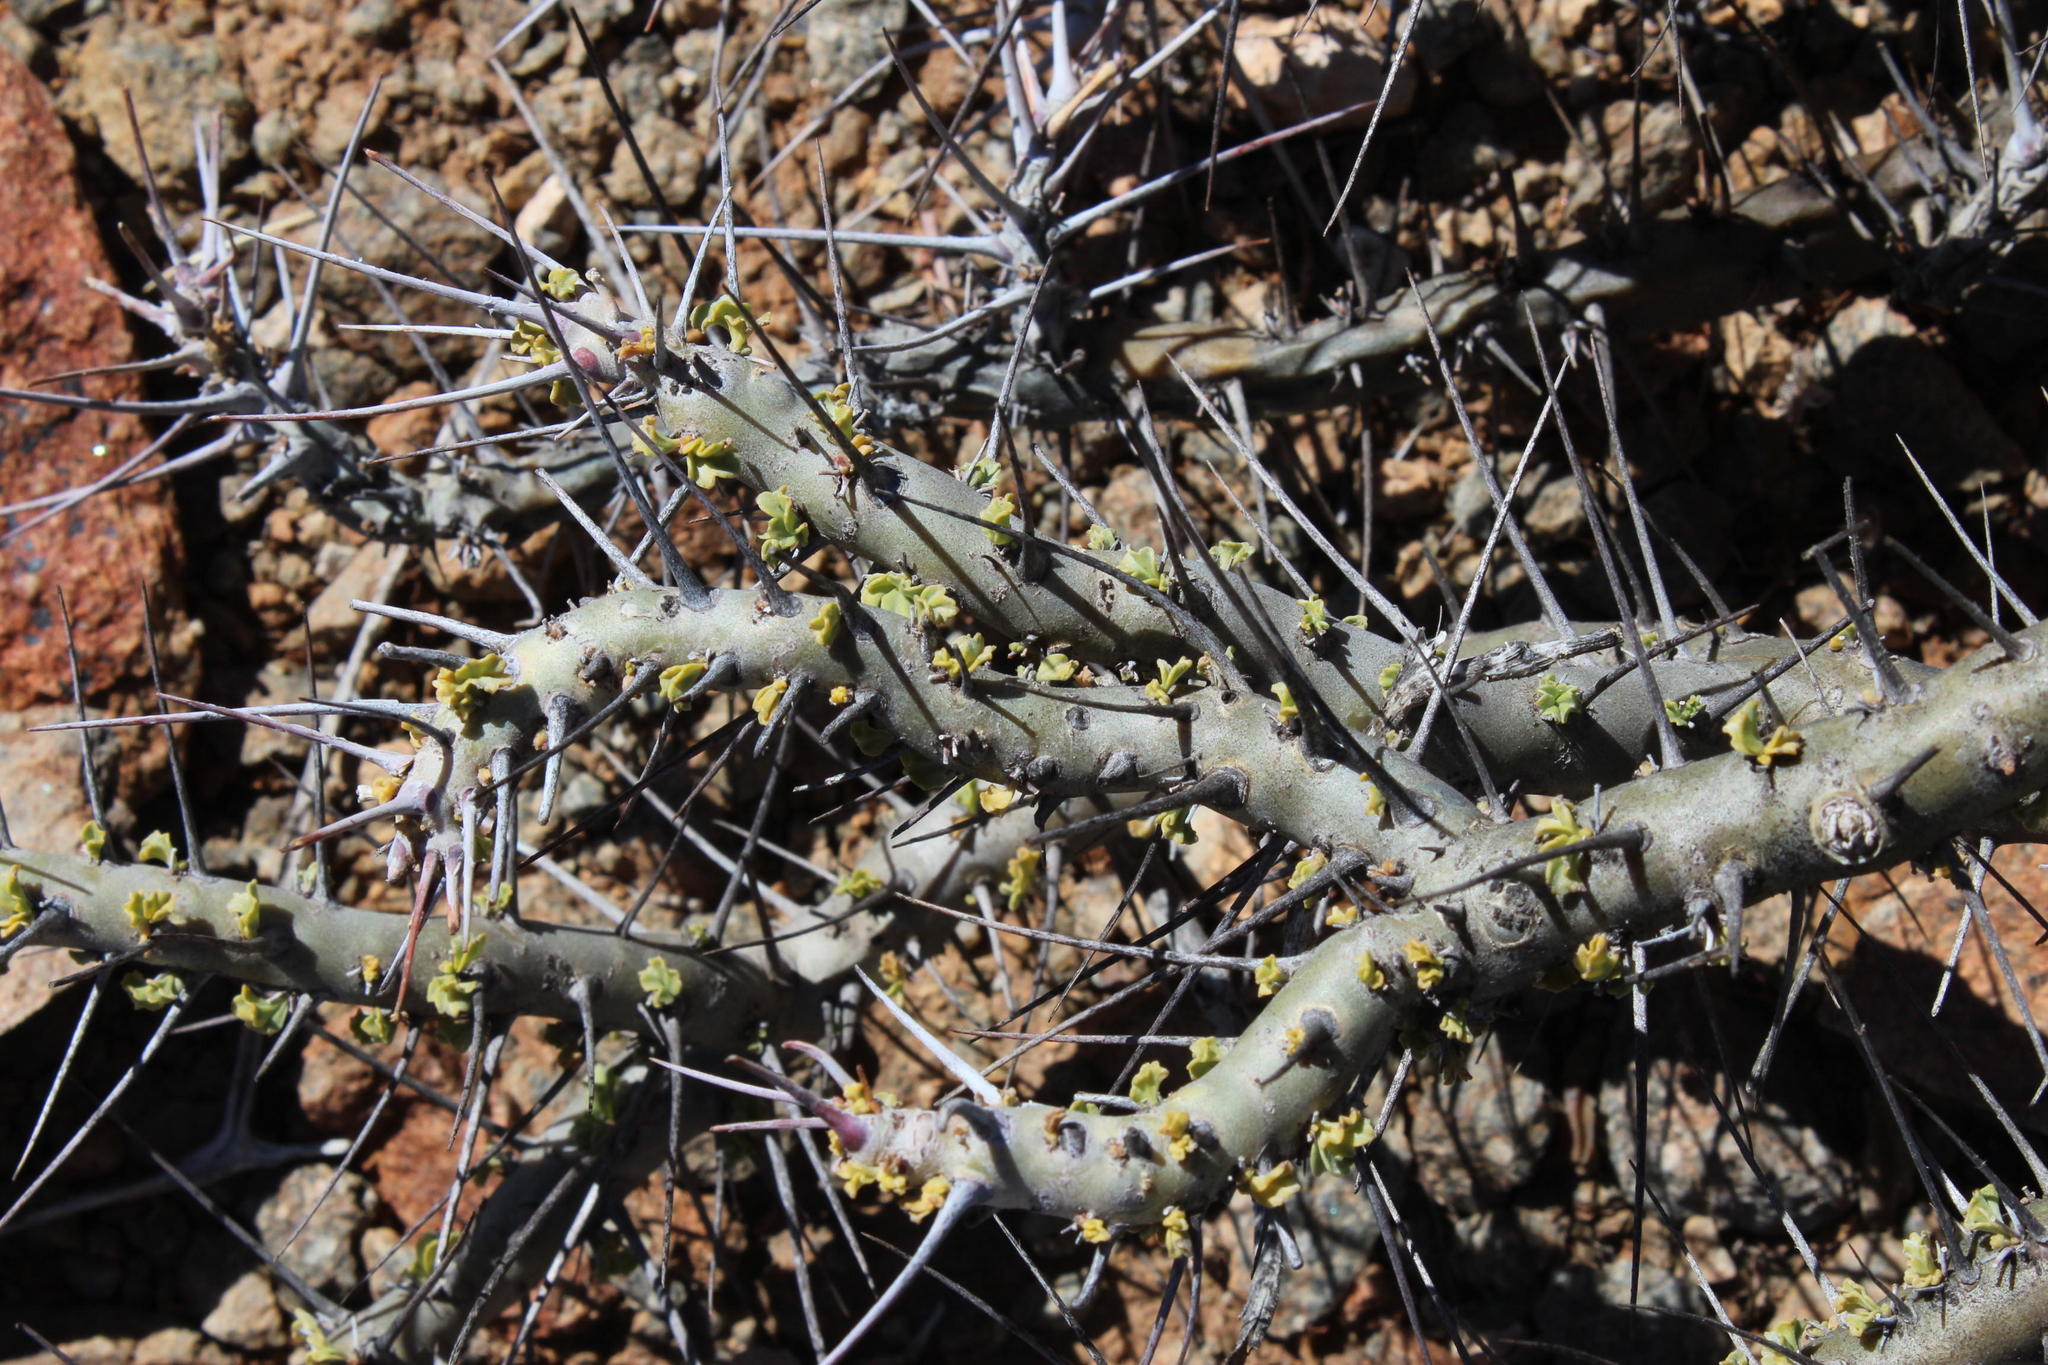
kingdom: Plantae
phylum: Tracheophyta
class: Magnoliopsida
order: Geraniales
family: Geraniaceae
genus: Monsonia
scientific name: Monsonia crassicaulis
